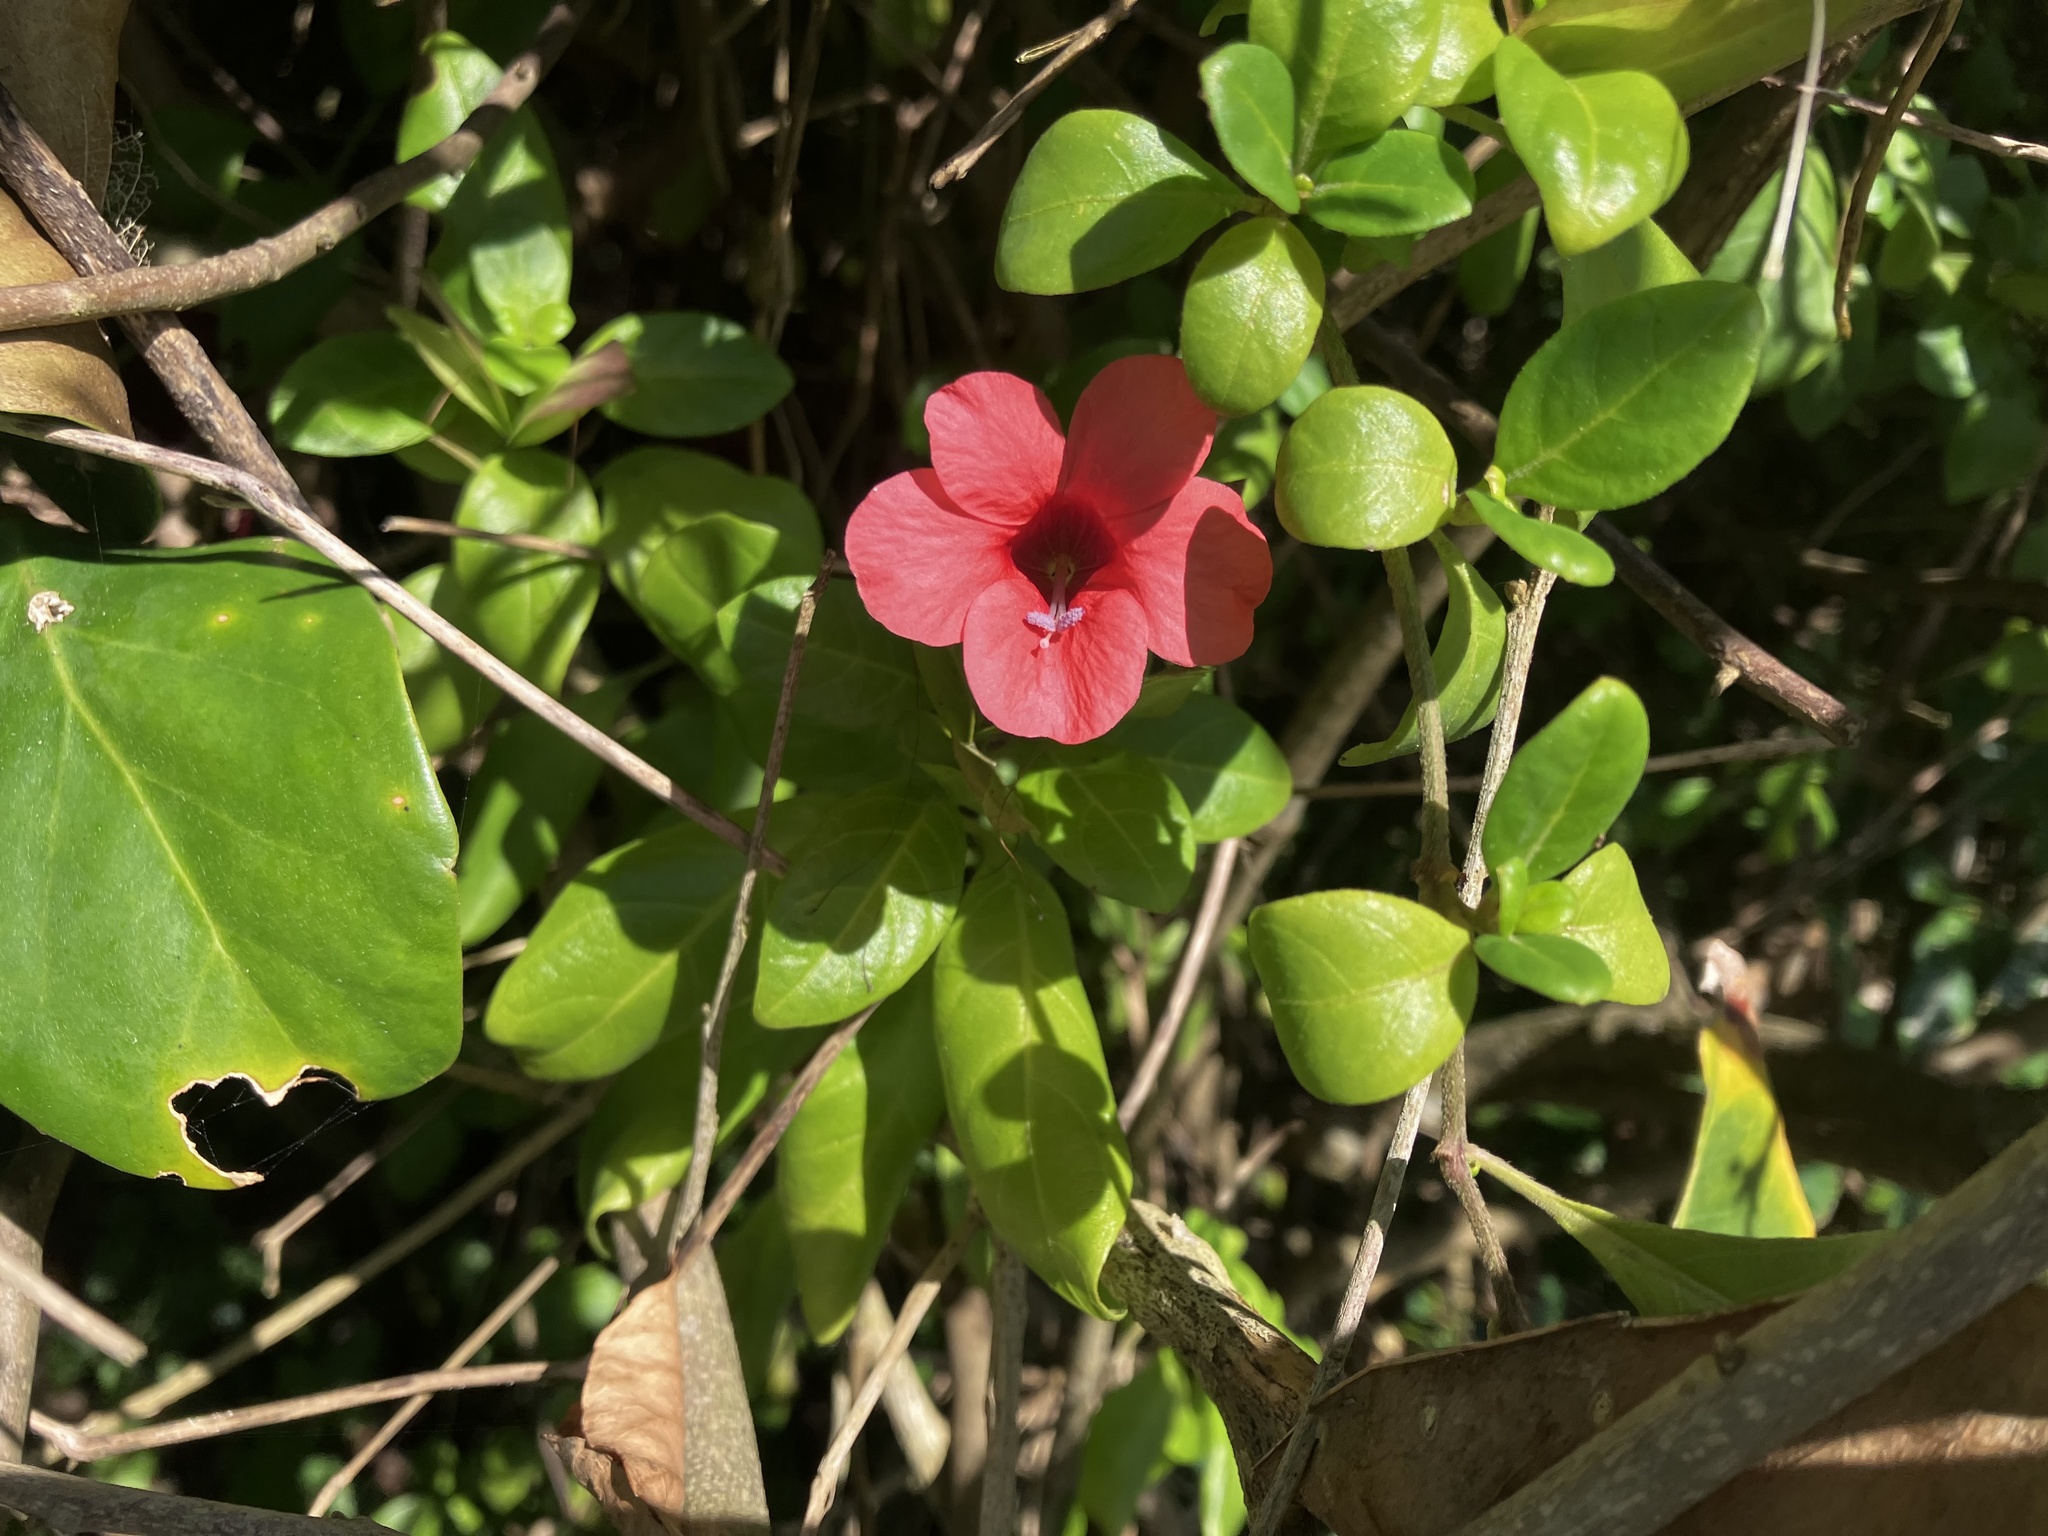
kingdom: Plantae
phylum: Tracheophyta
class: Magnoliopsida
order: Lamiales
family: Acanthaceae
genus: Barleria
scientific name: Barleria repens
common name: Pink-ruellia
